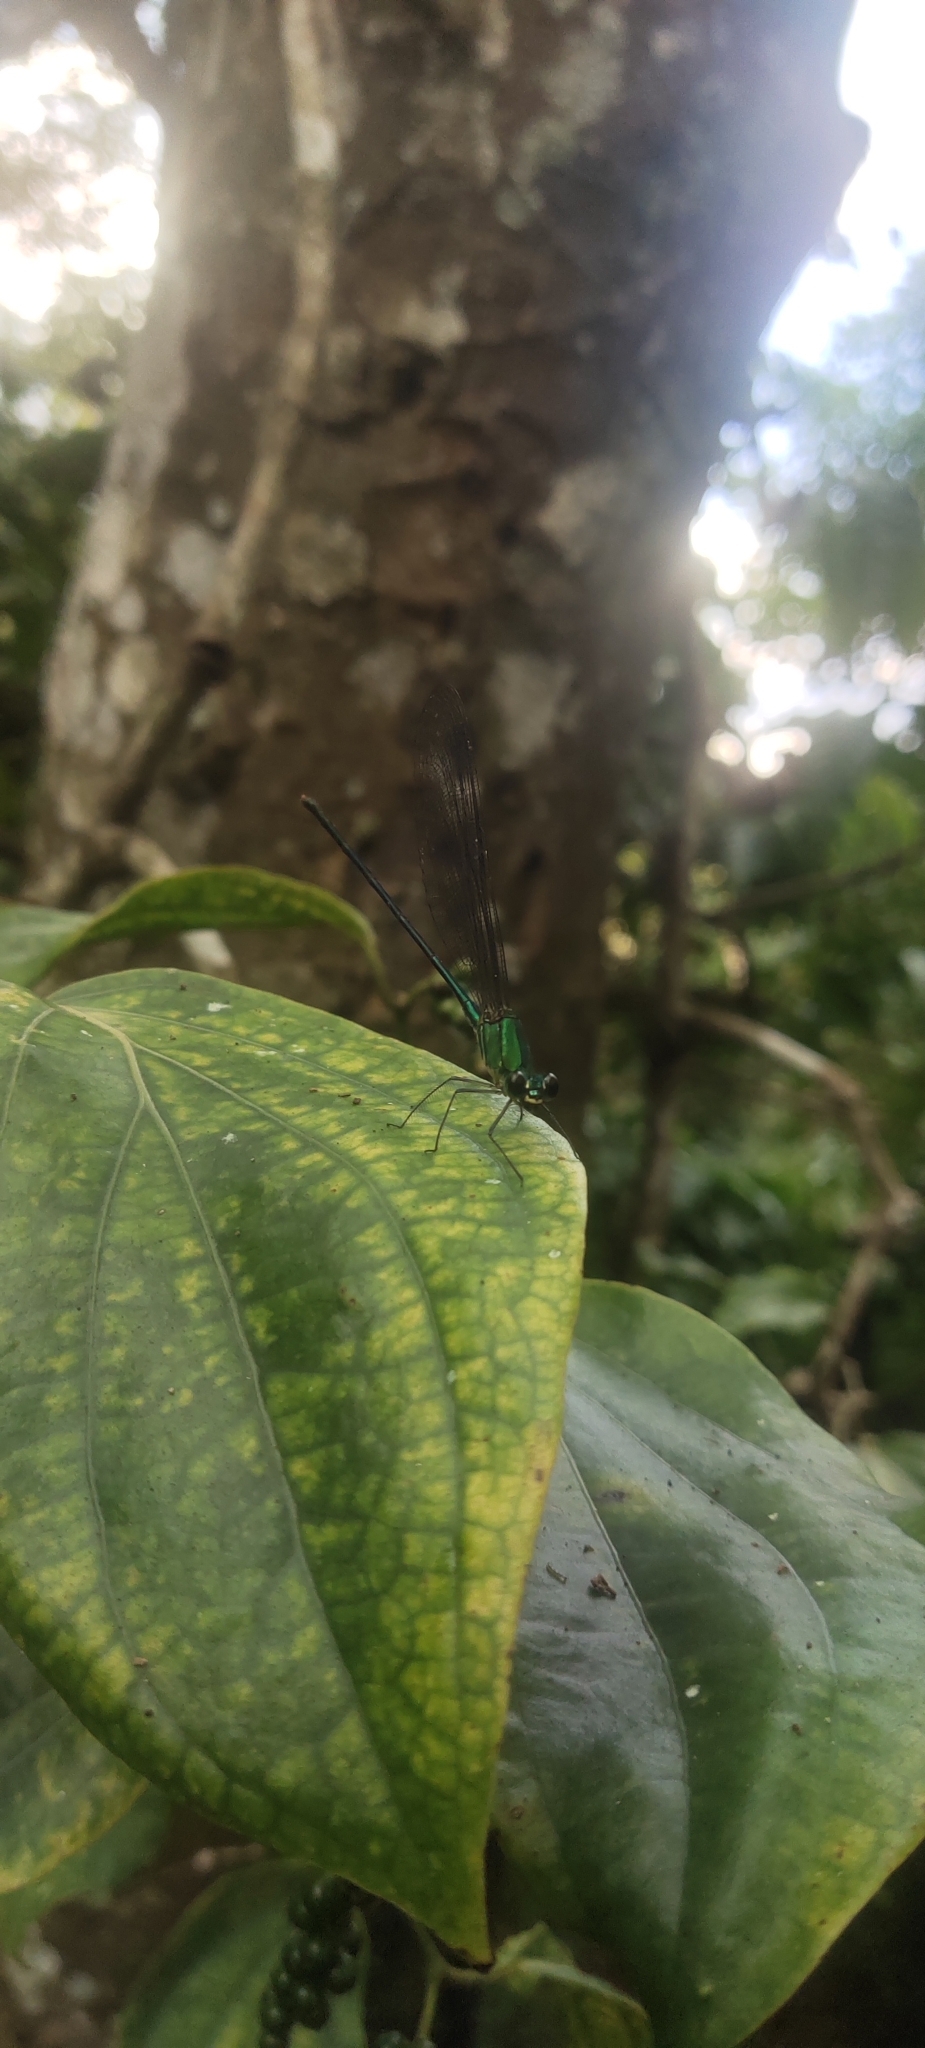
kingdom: Animalia
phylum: Arthropoda
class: Insecta
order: Odonata
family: Calopterygidae
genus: Vestalis
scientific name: Vestalis gracilis
